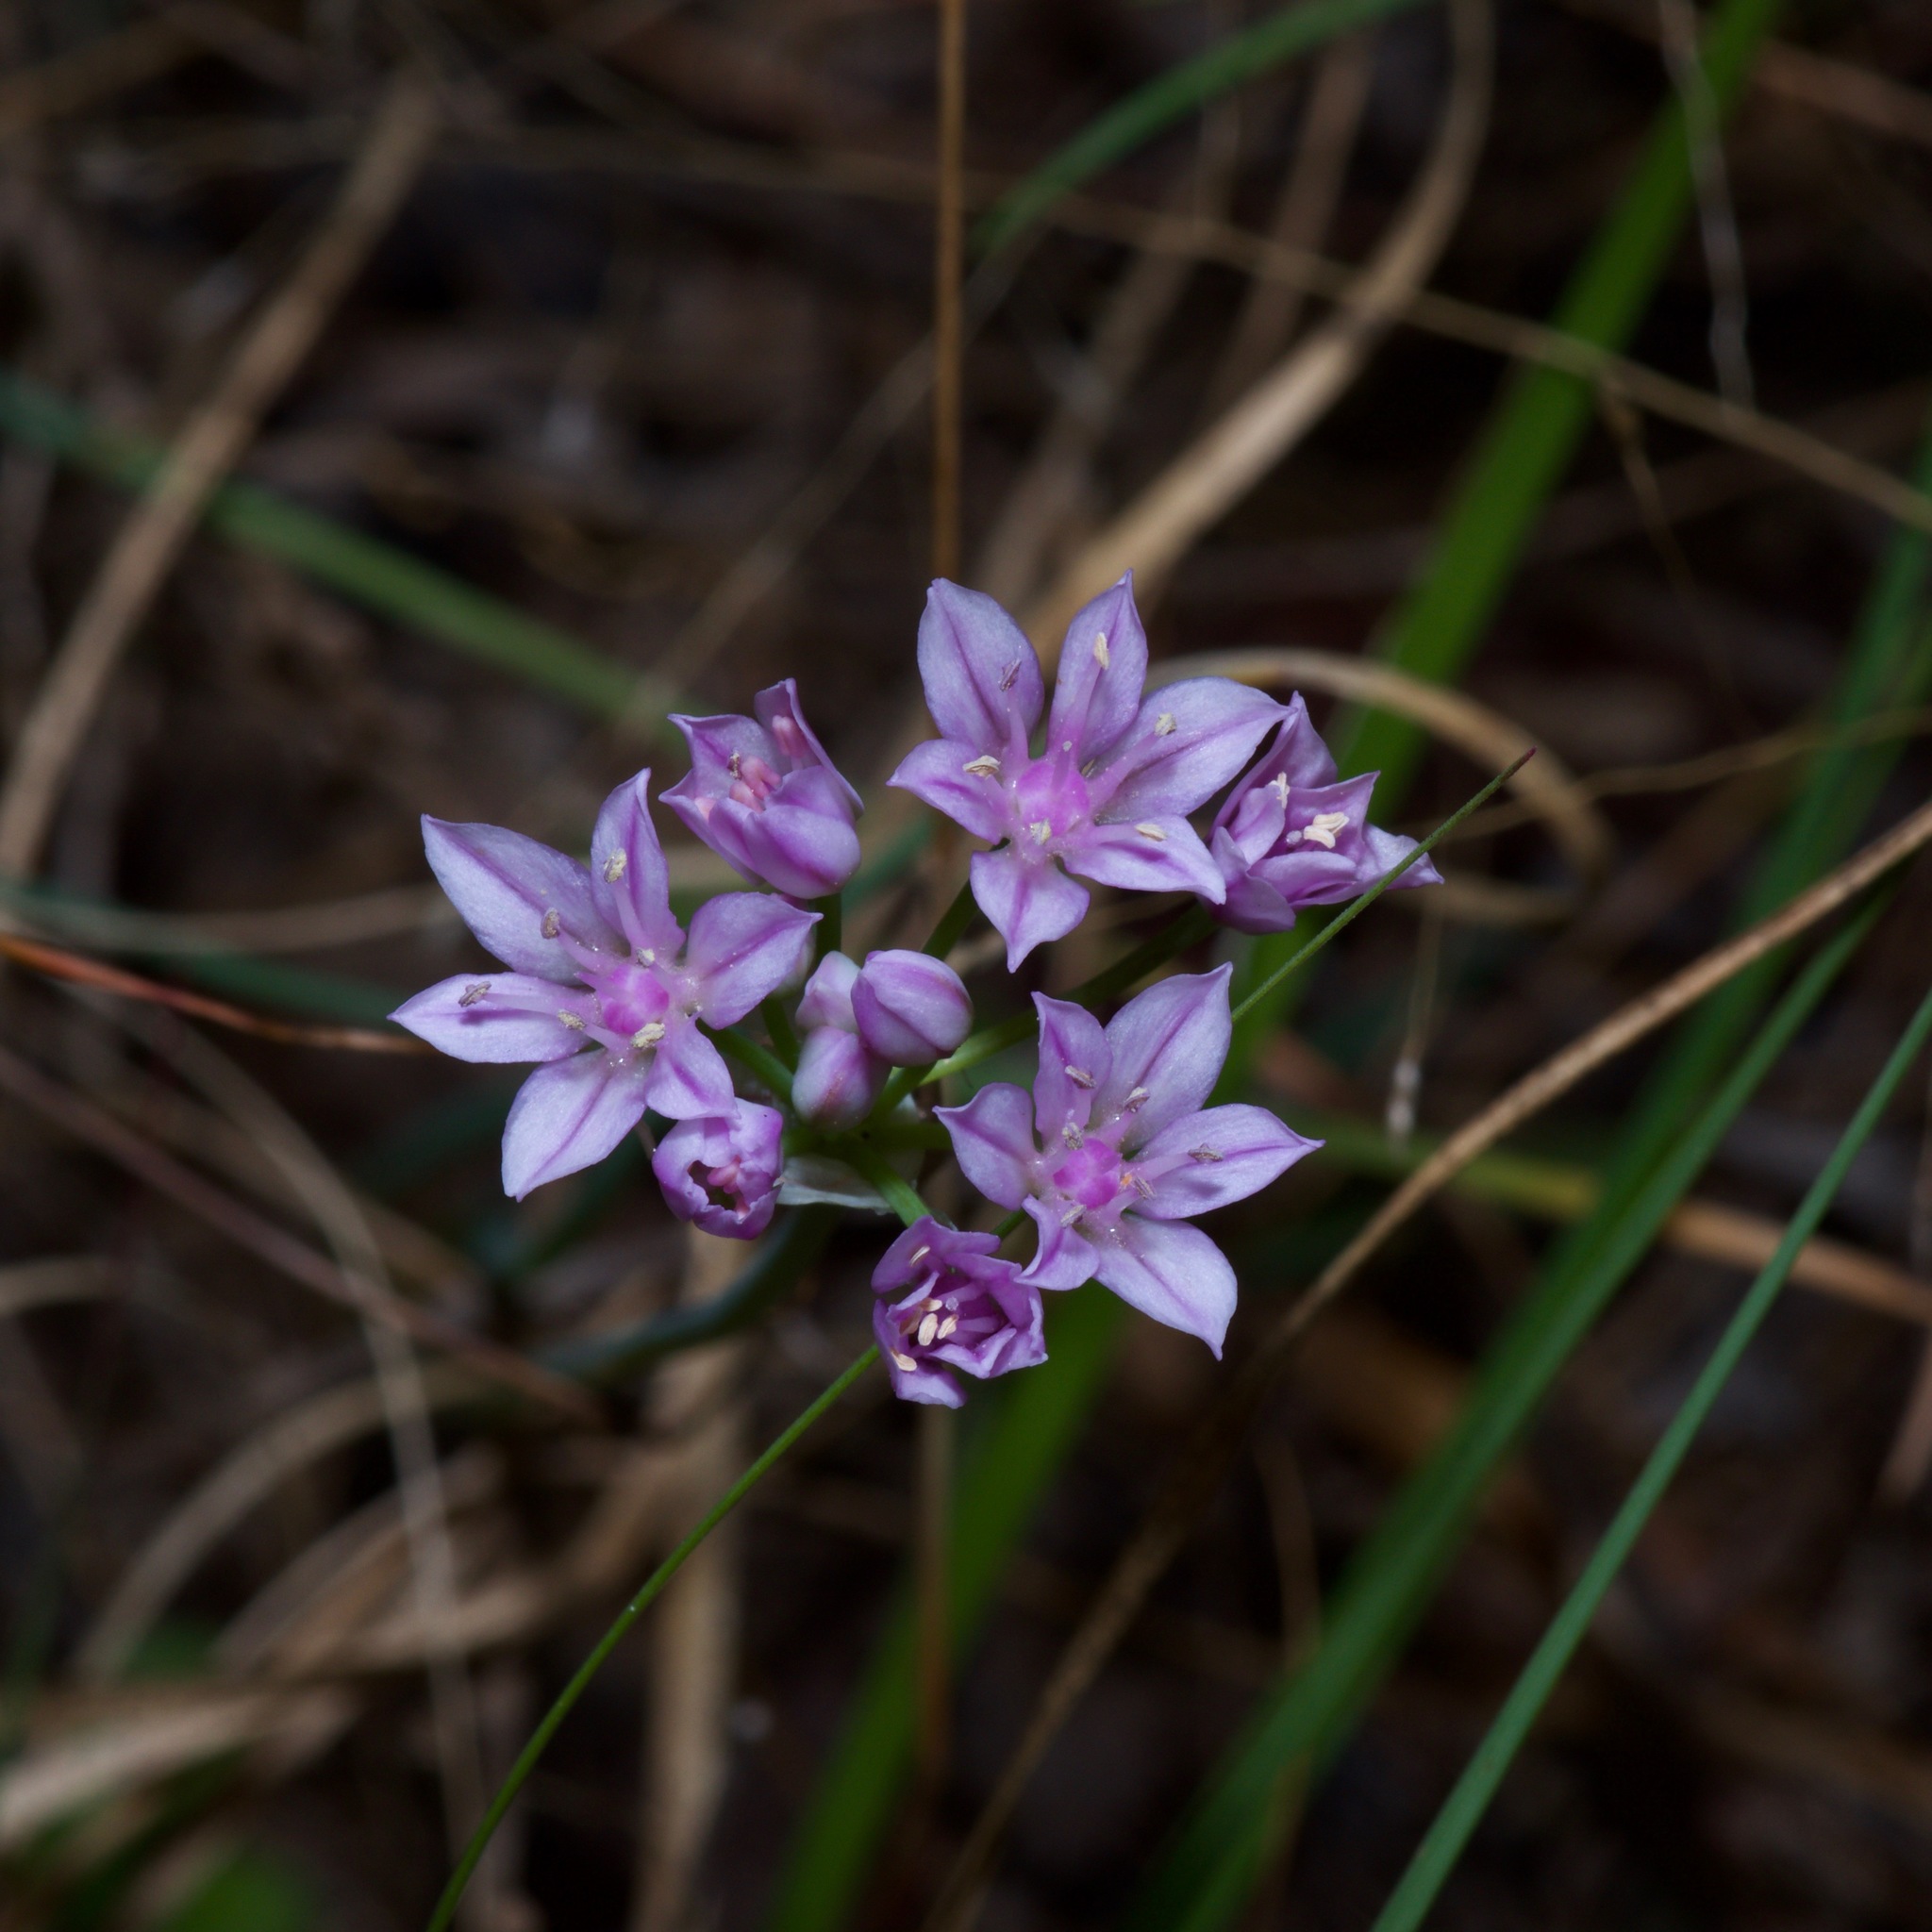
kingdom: Plantae
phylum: Tracheophyta
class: Liliopsida
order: Asparagales
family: Amaryllidaceae
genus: Allium
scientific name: Allium drummondii
